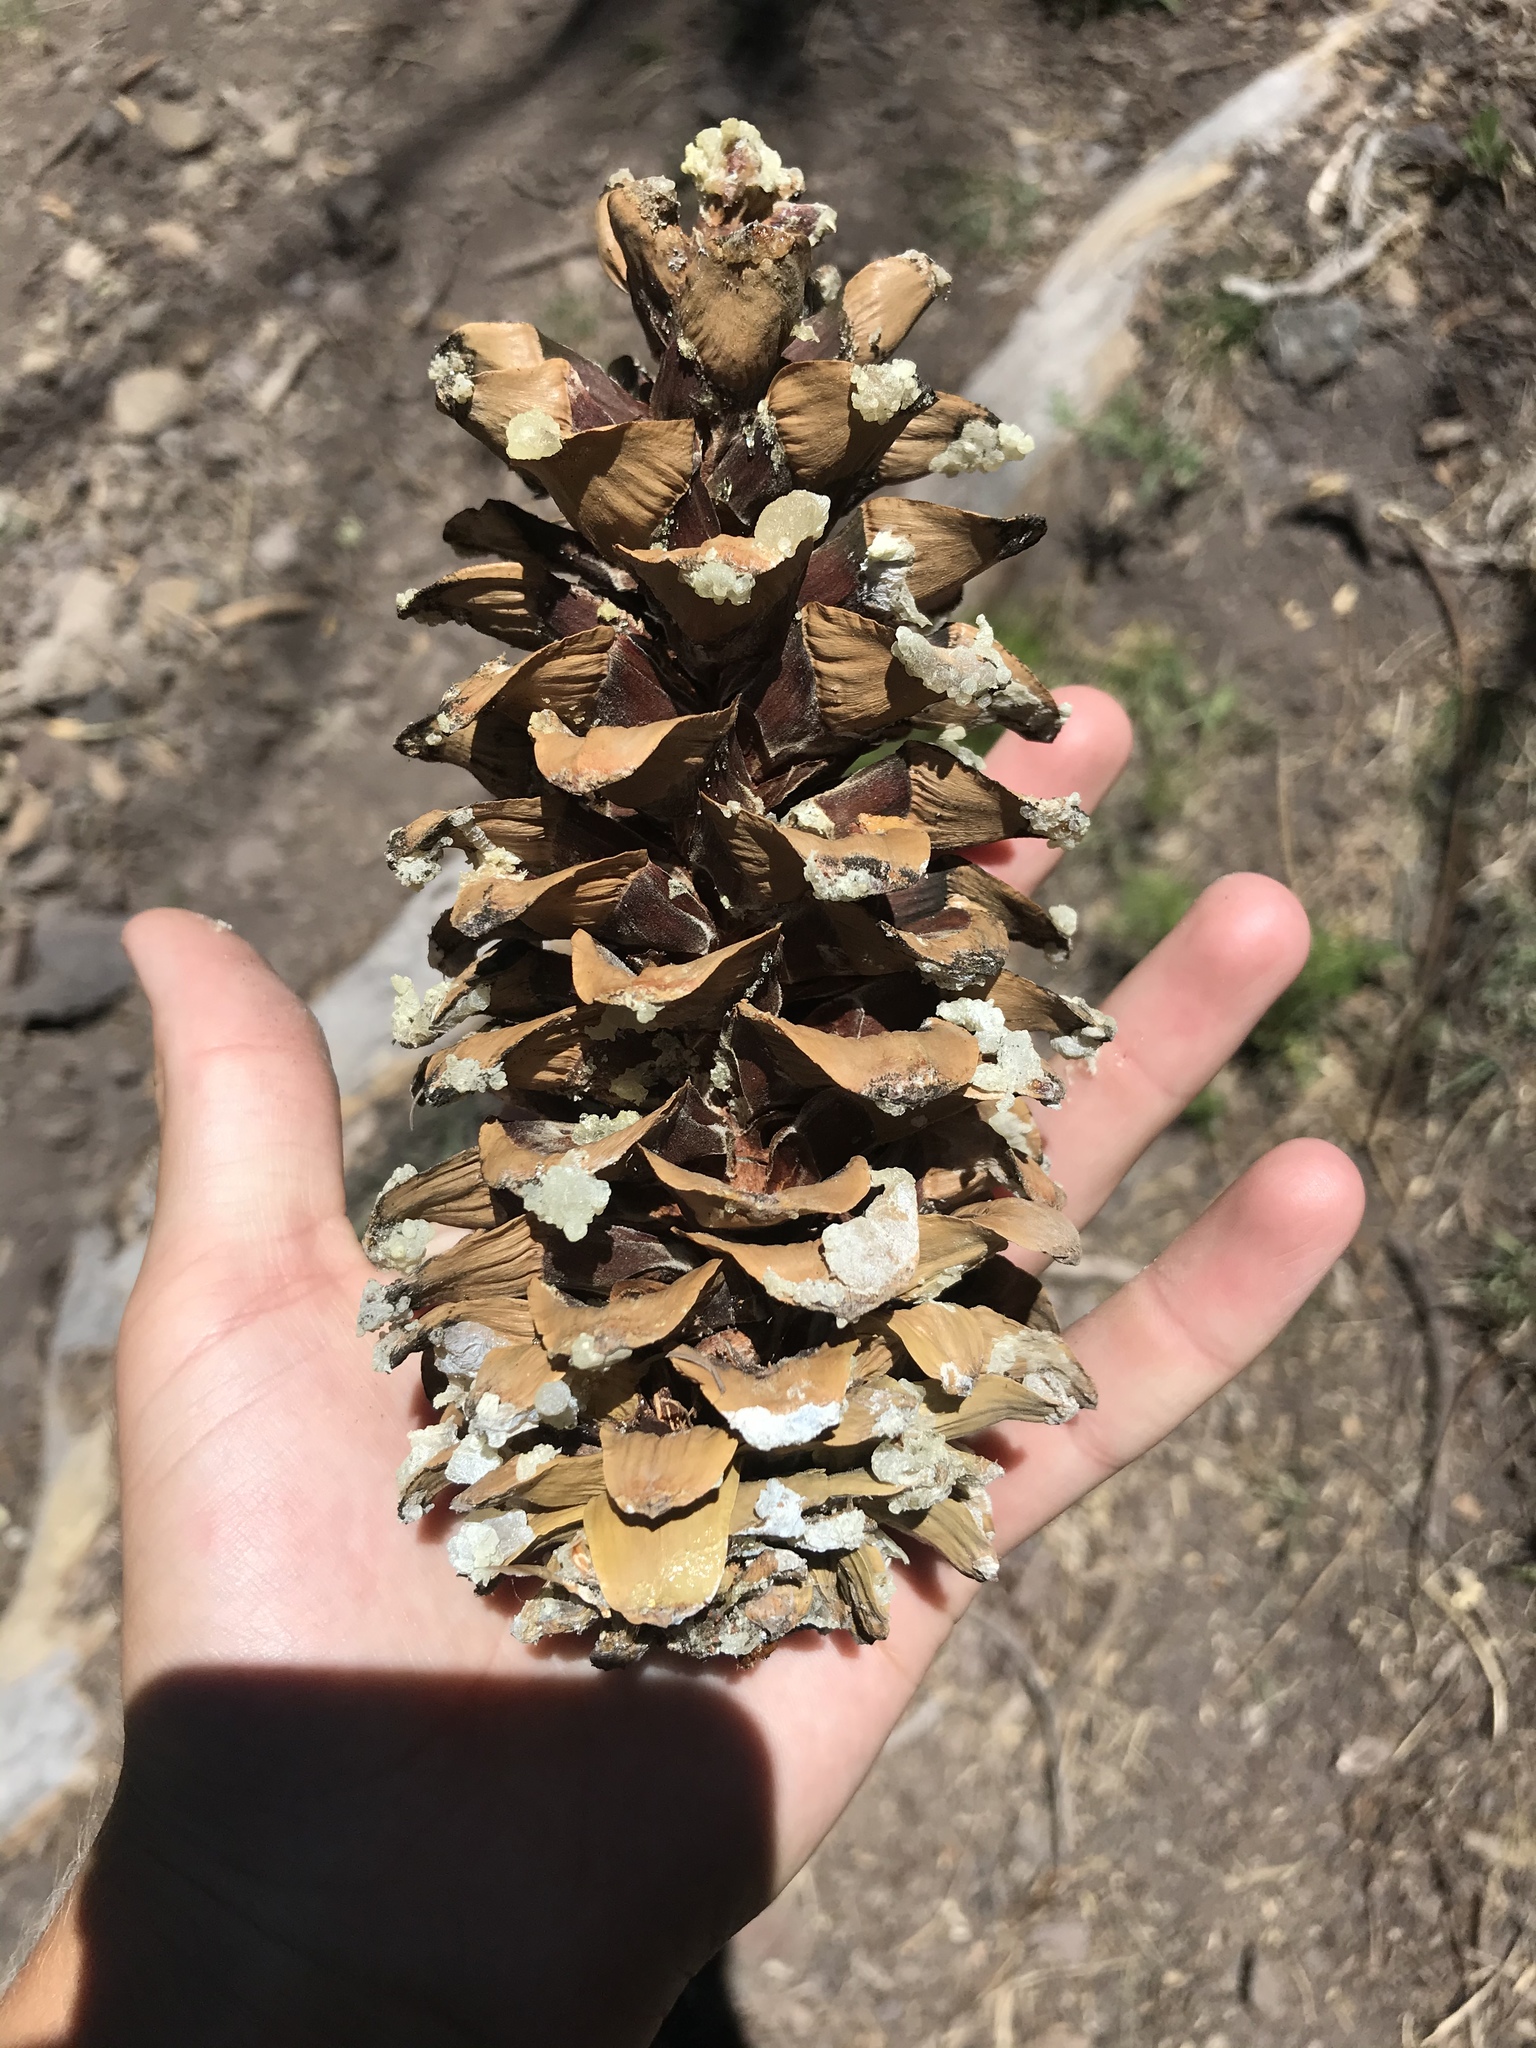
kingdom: Plantae
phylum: Tracheophyta
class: Pinopsida
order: Pinales
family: Pinaceae
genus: Pinus
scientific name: Pinus strobiformis
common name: Southwestern white pine
